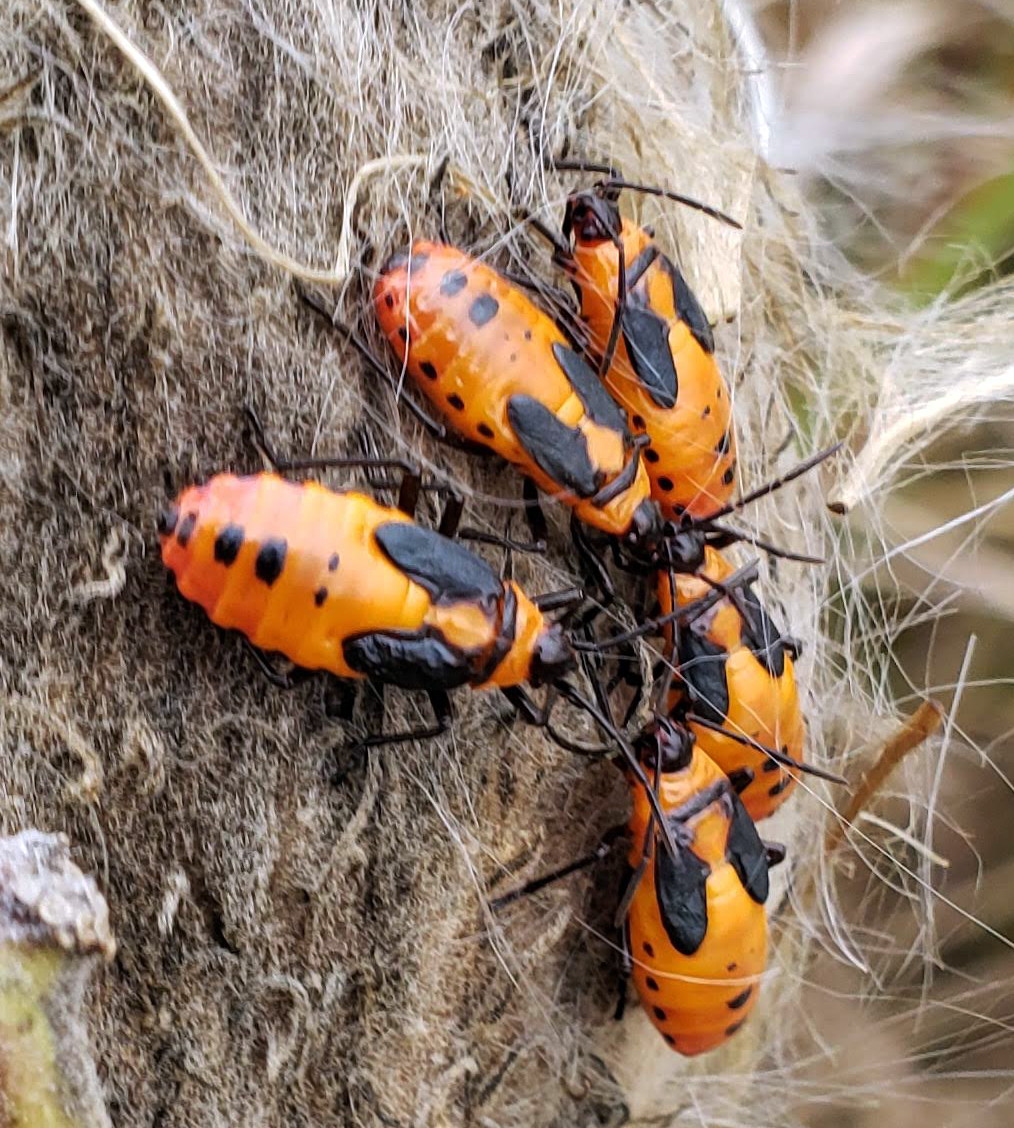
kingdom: Animalia
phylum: Arthropoda
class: Insecta
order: Hemiptera
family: Lygaeidae
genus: Oncopeltus
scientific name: Oncopeltus fasciatus
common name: Large milkweed bug
